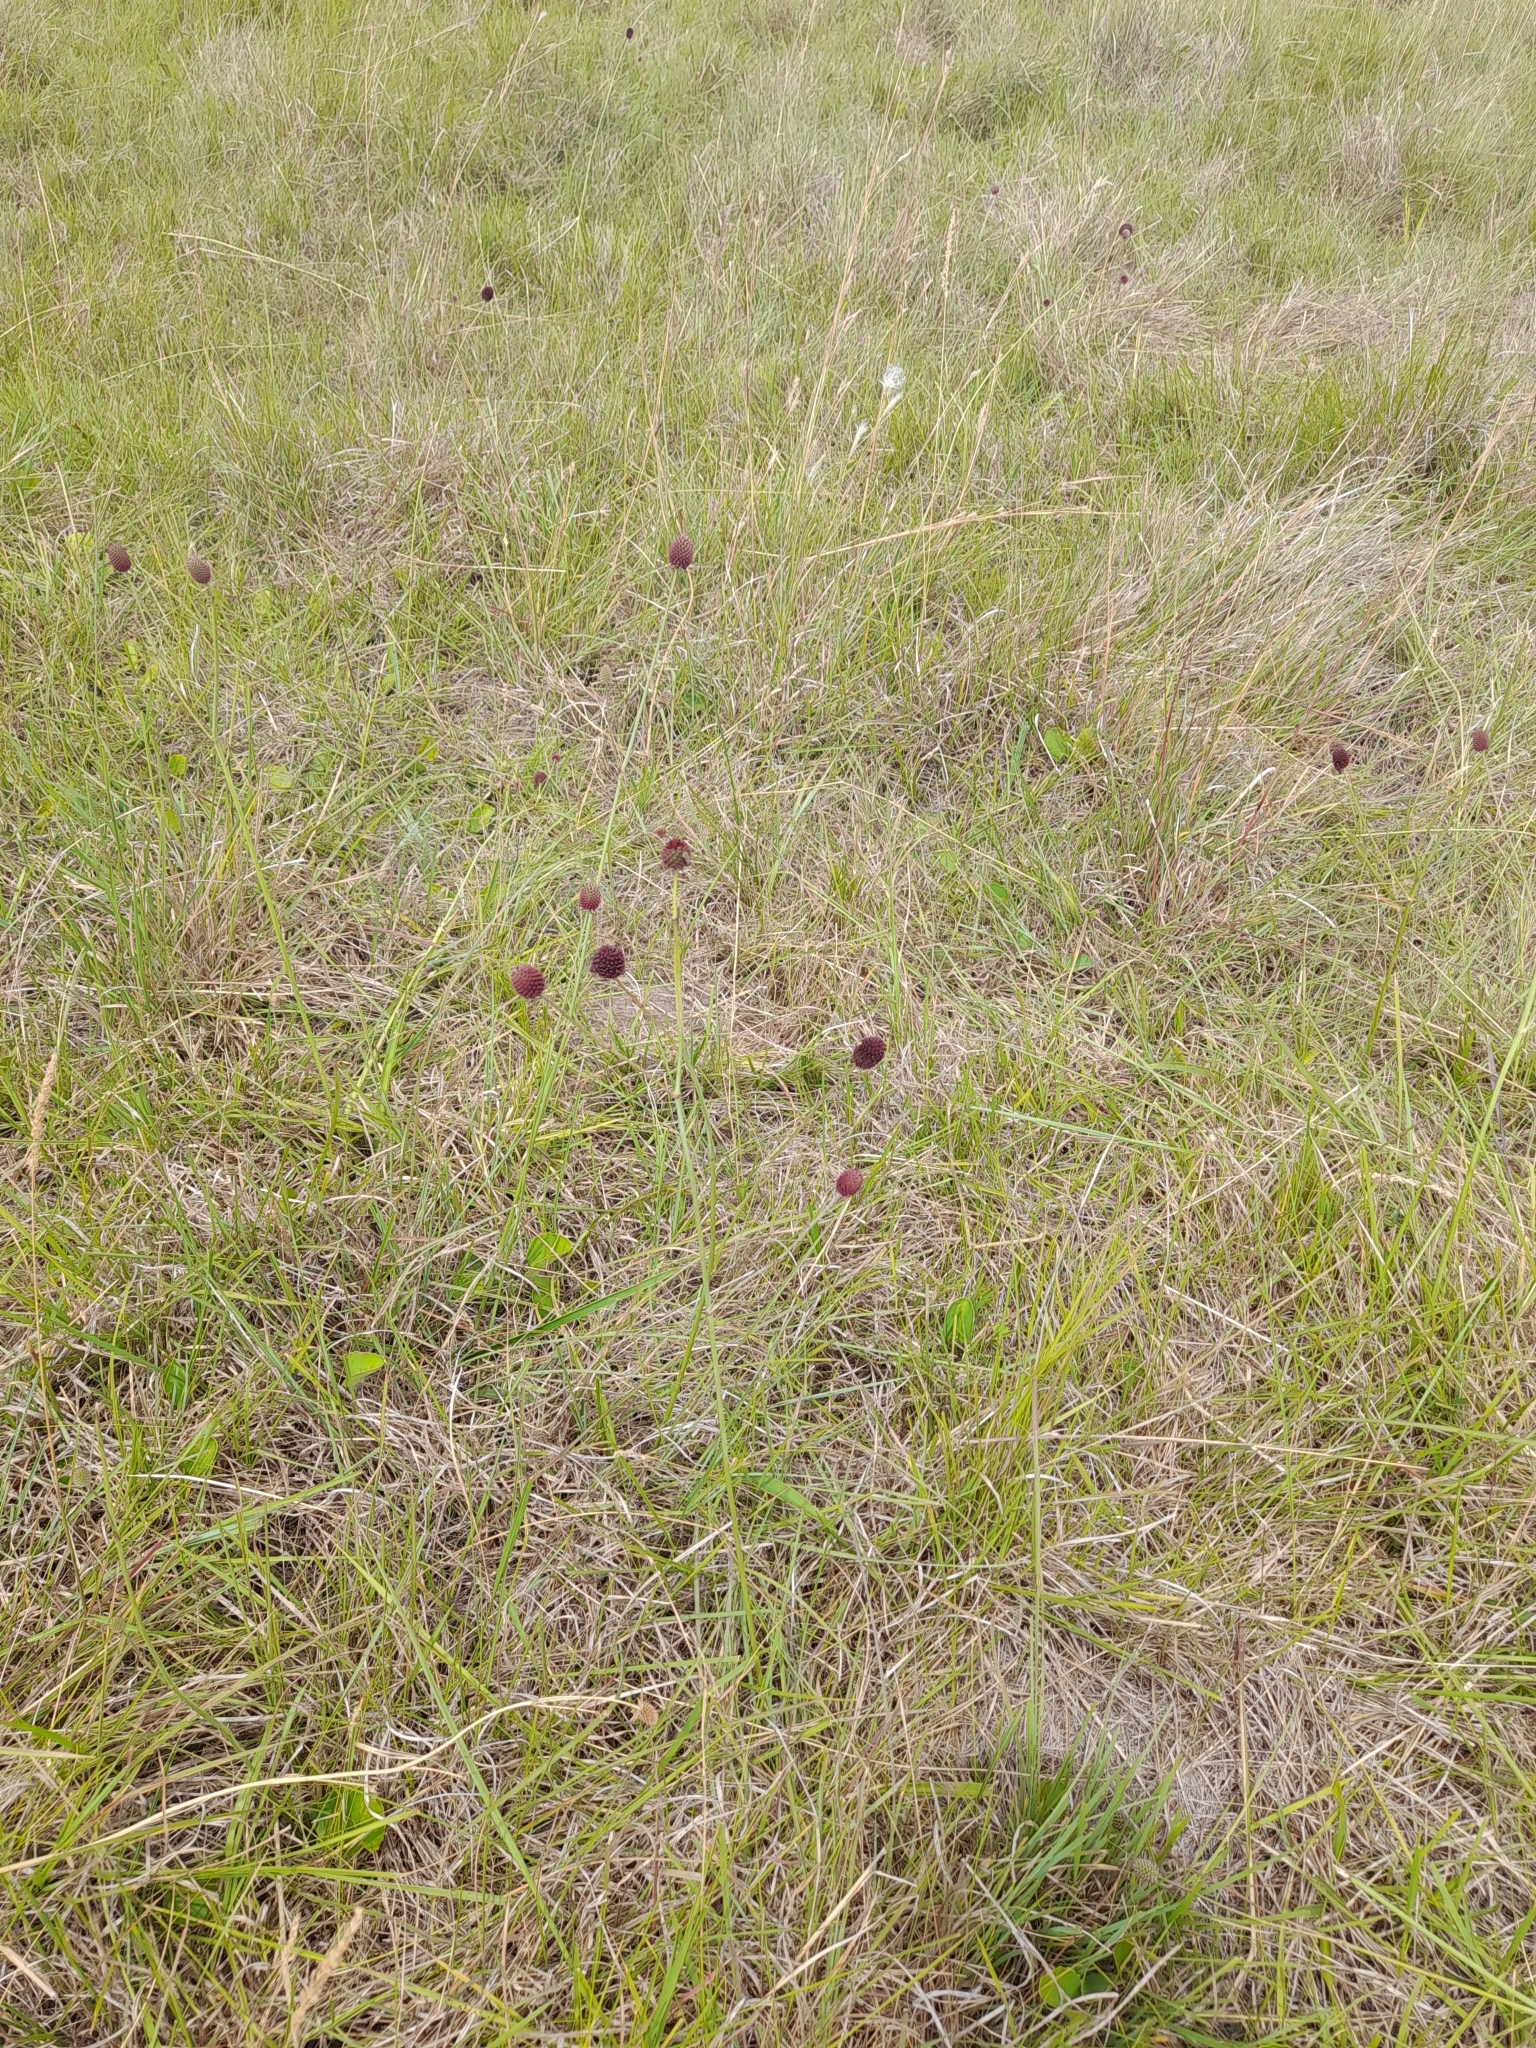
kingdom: Plantae
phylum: Tracheophyta
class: Magnoliopsida
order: Apiales
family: Apiaceae
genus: Eryngium
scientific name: Eryngium sanguisorba
